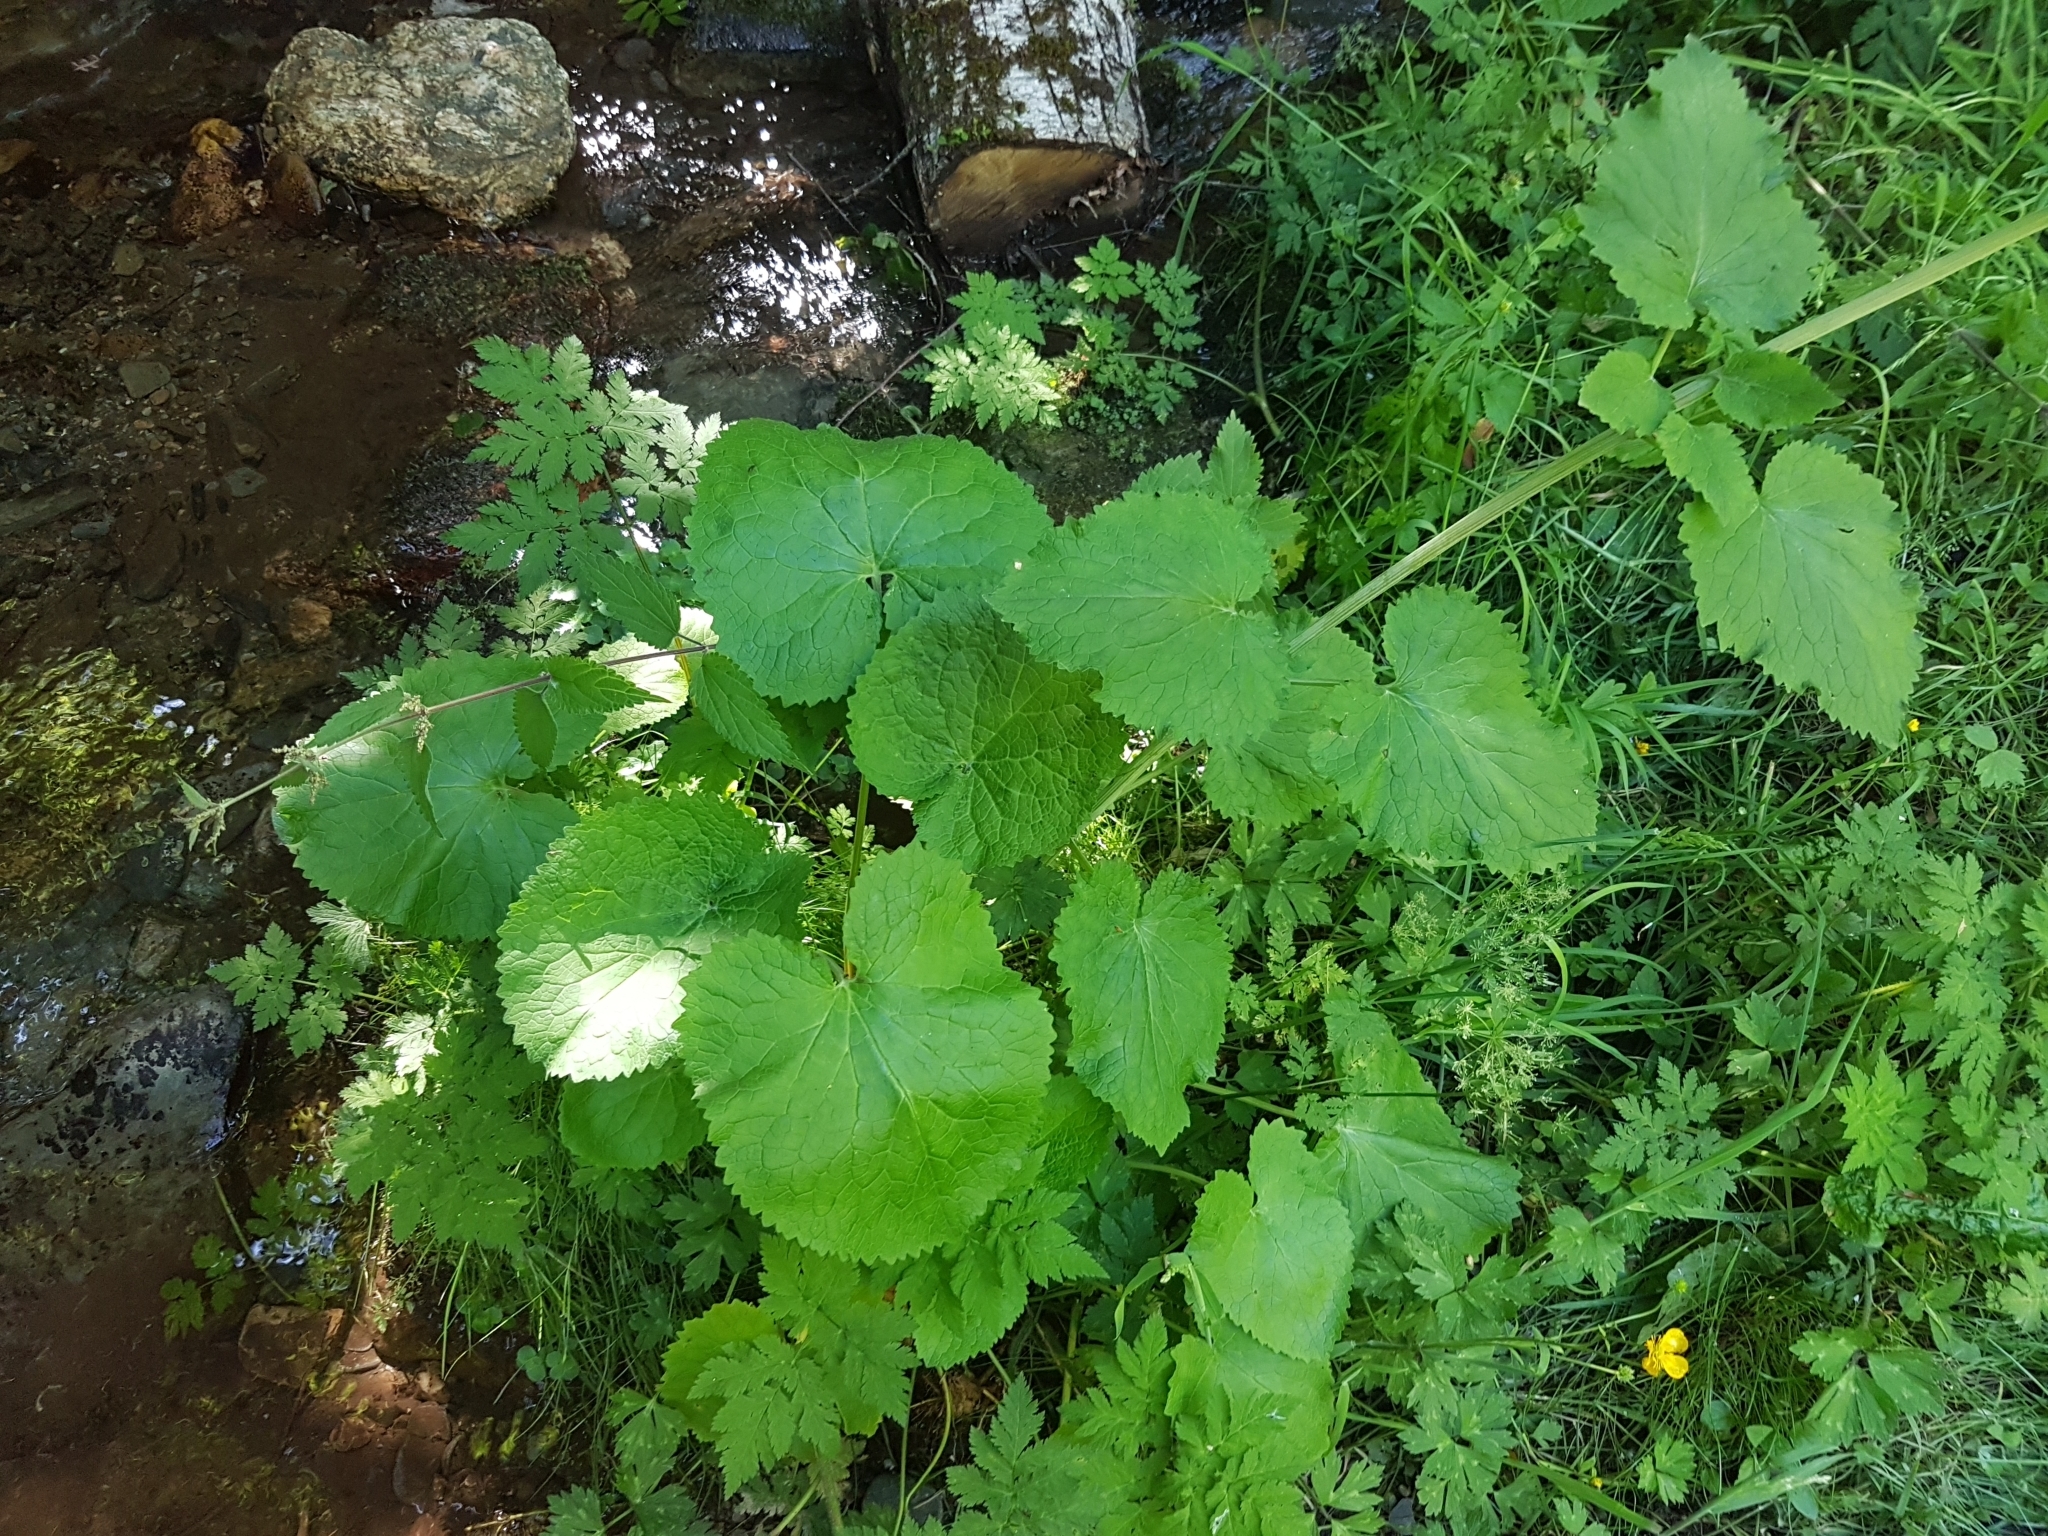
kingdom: Plantae
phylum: Tracheophyta
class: Magnoliopsida
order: Dipsacales
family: Caprifoliaceae
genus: Valeriana
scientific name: Valeriana pyrenaica
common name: Pyrenean valerian
